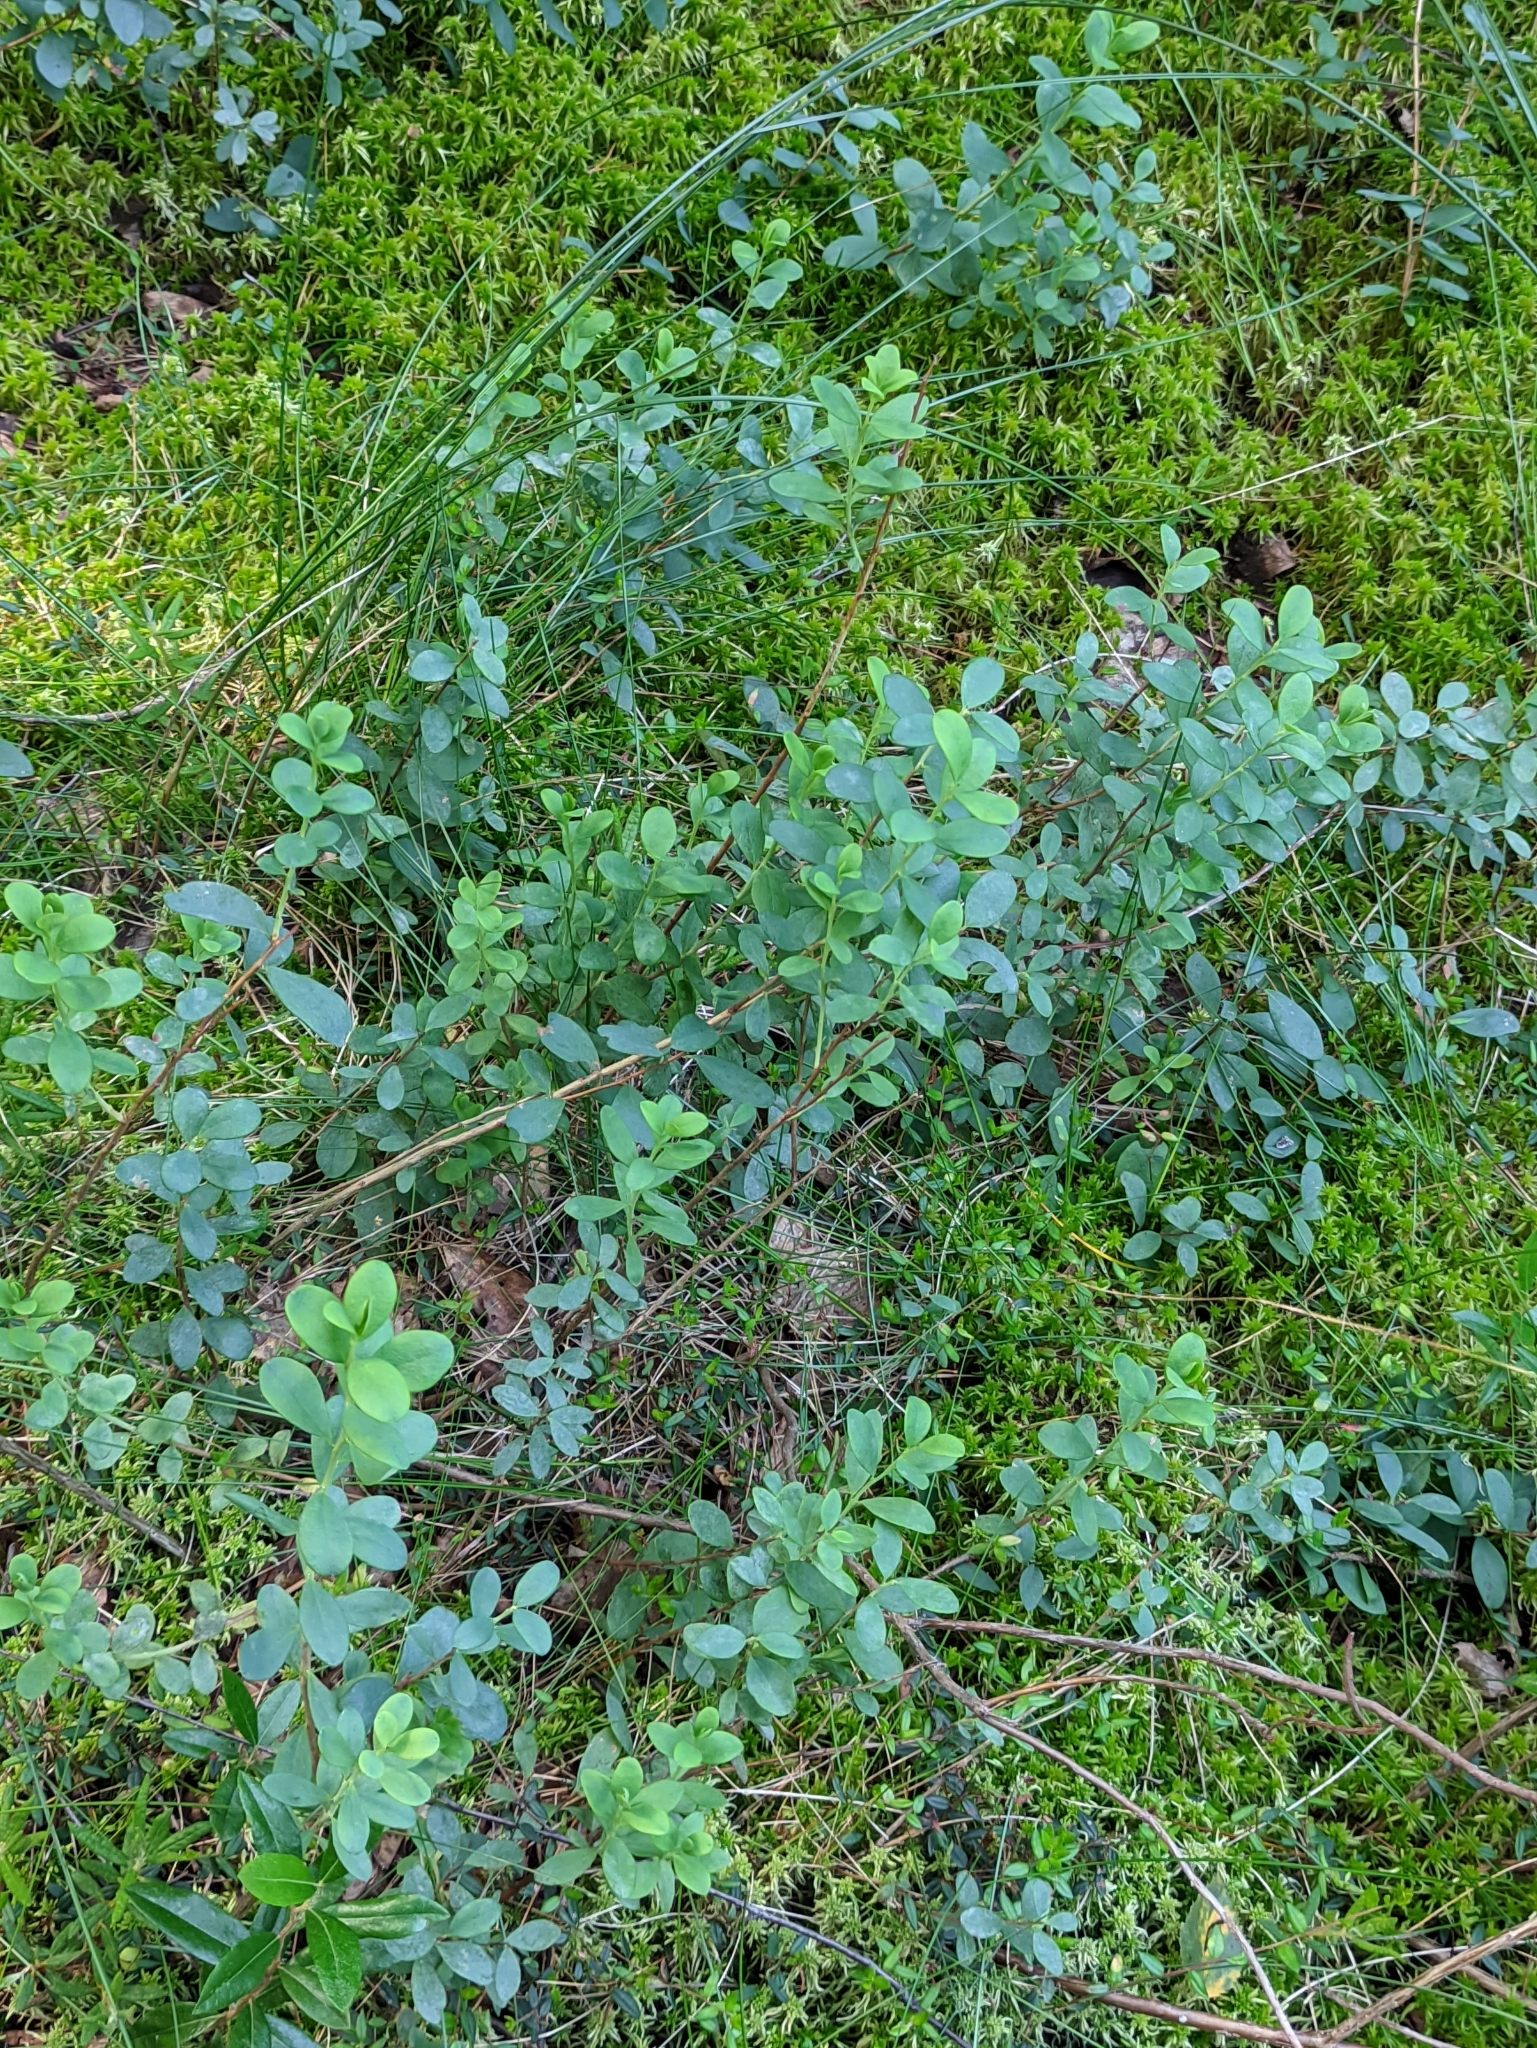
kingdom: Plantae
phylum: Tracheophyta
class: Magnoliopsida
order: Ericales
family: Ericaceae
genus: Vaccinium
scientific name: Vaccinium uliginosum
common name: Bog bilberry
